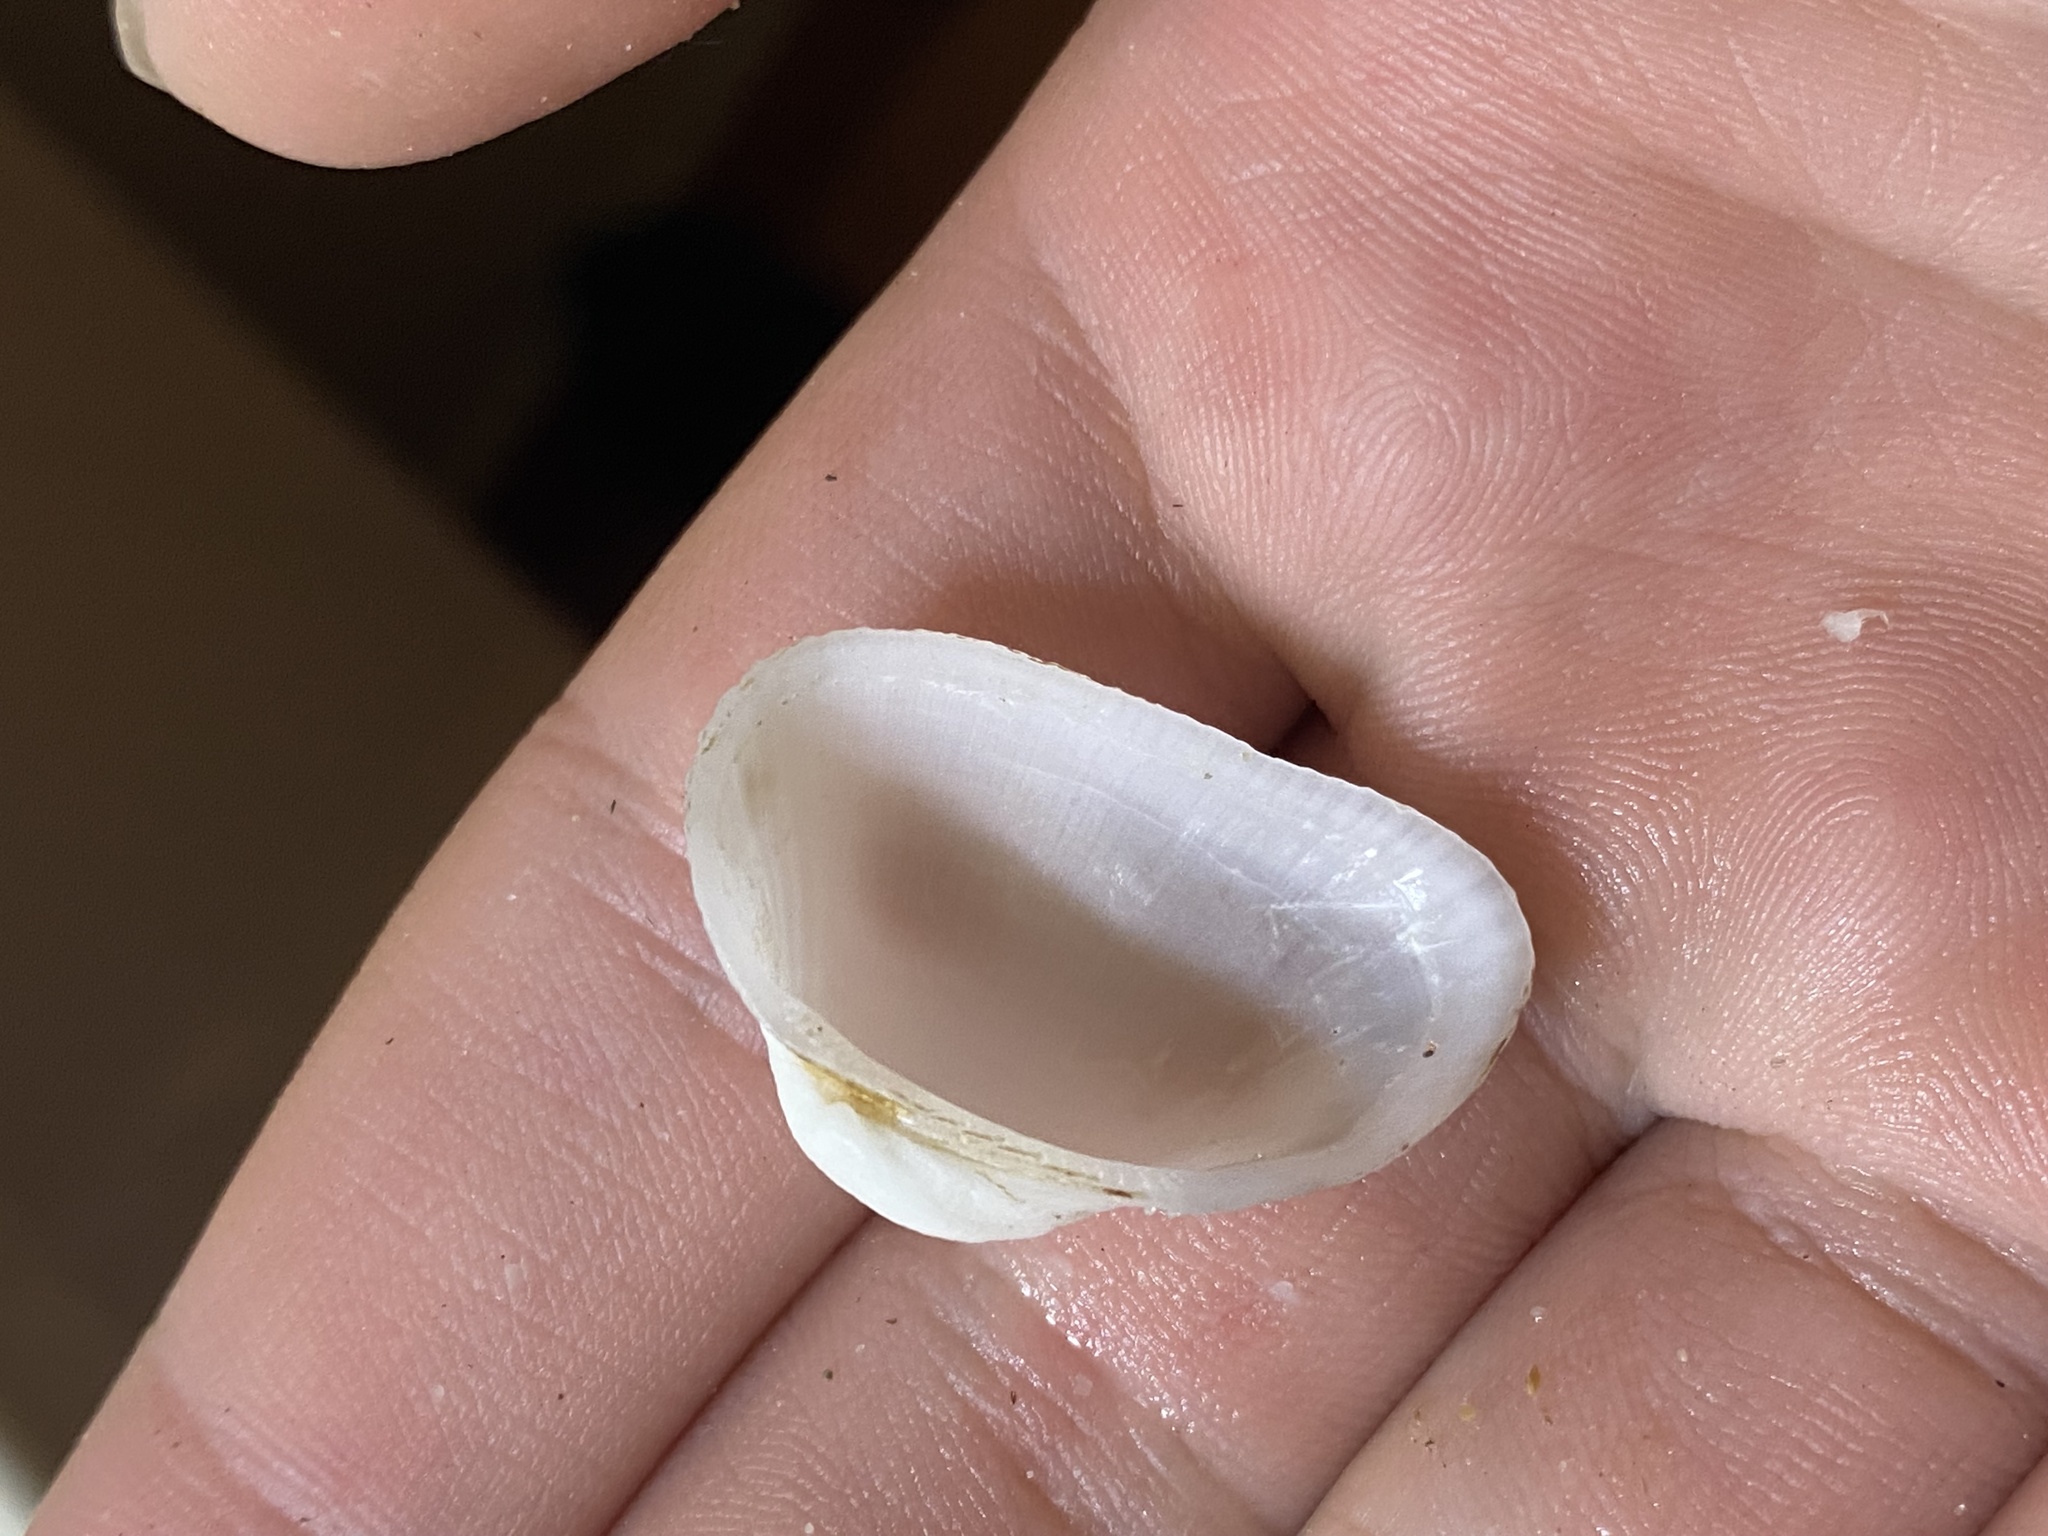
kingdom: Animalia
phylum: Mollusca
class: Bivalvia
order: Arcida
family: Arcidae
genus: Fugleria
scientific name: Fugleria illota
